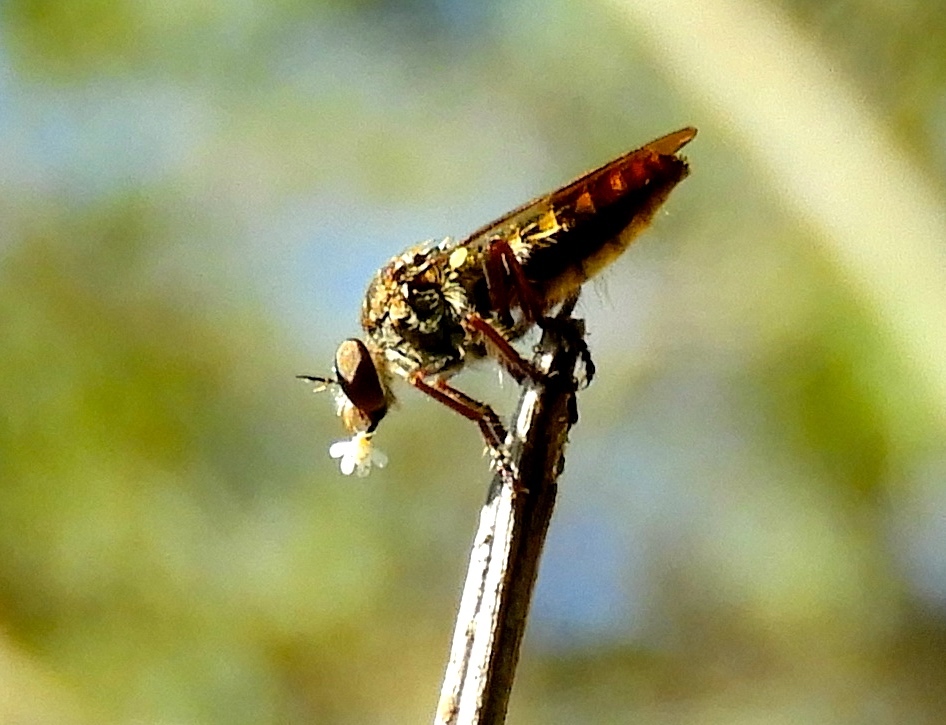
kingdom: Animalia
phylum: Arthropoda
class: Insecta
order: Diptera
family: Asilidae
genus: Heteropogon
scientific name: Heteropogon
